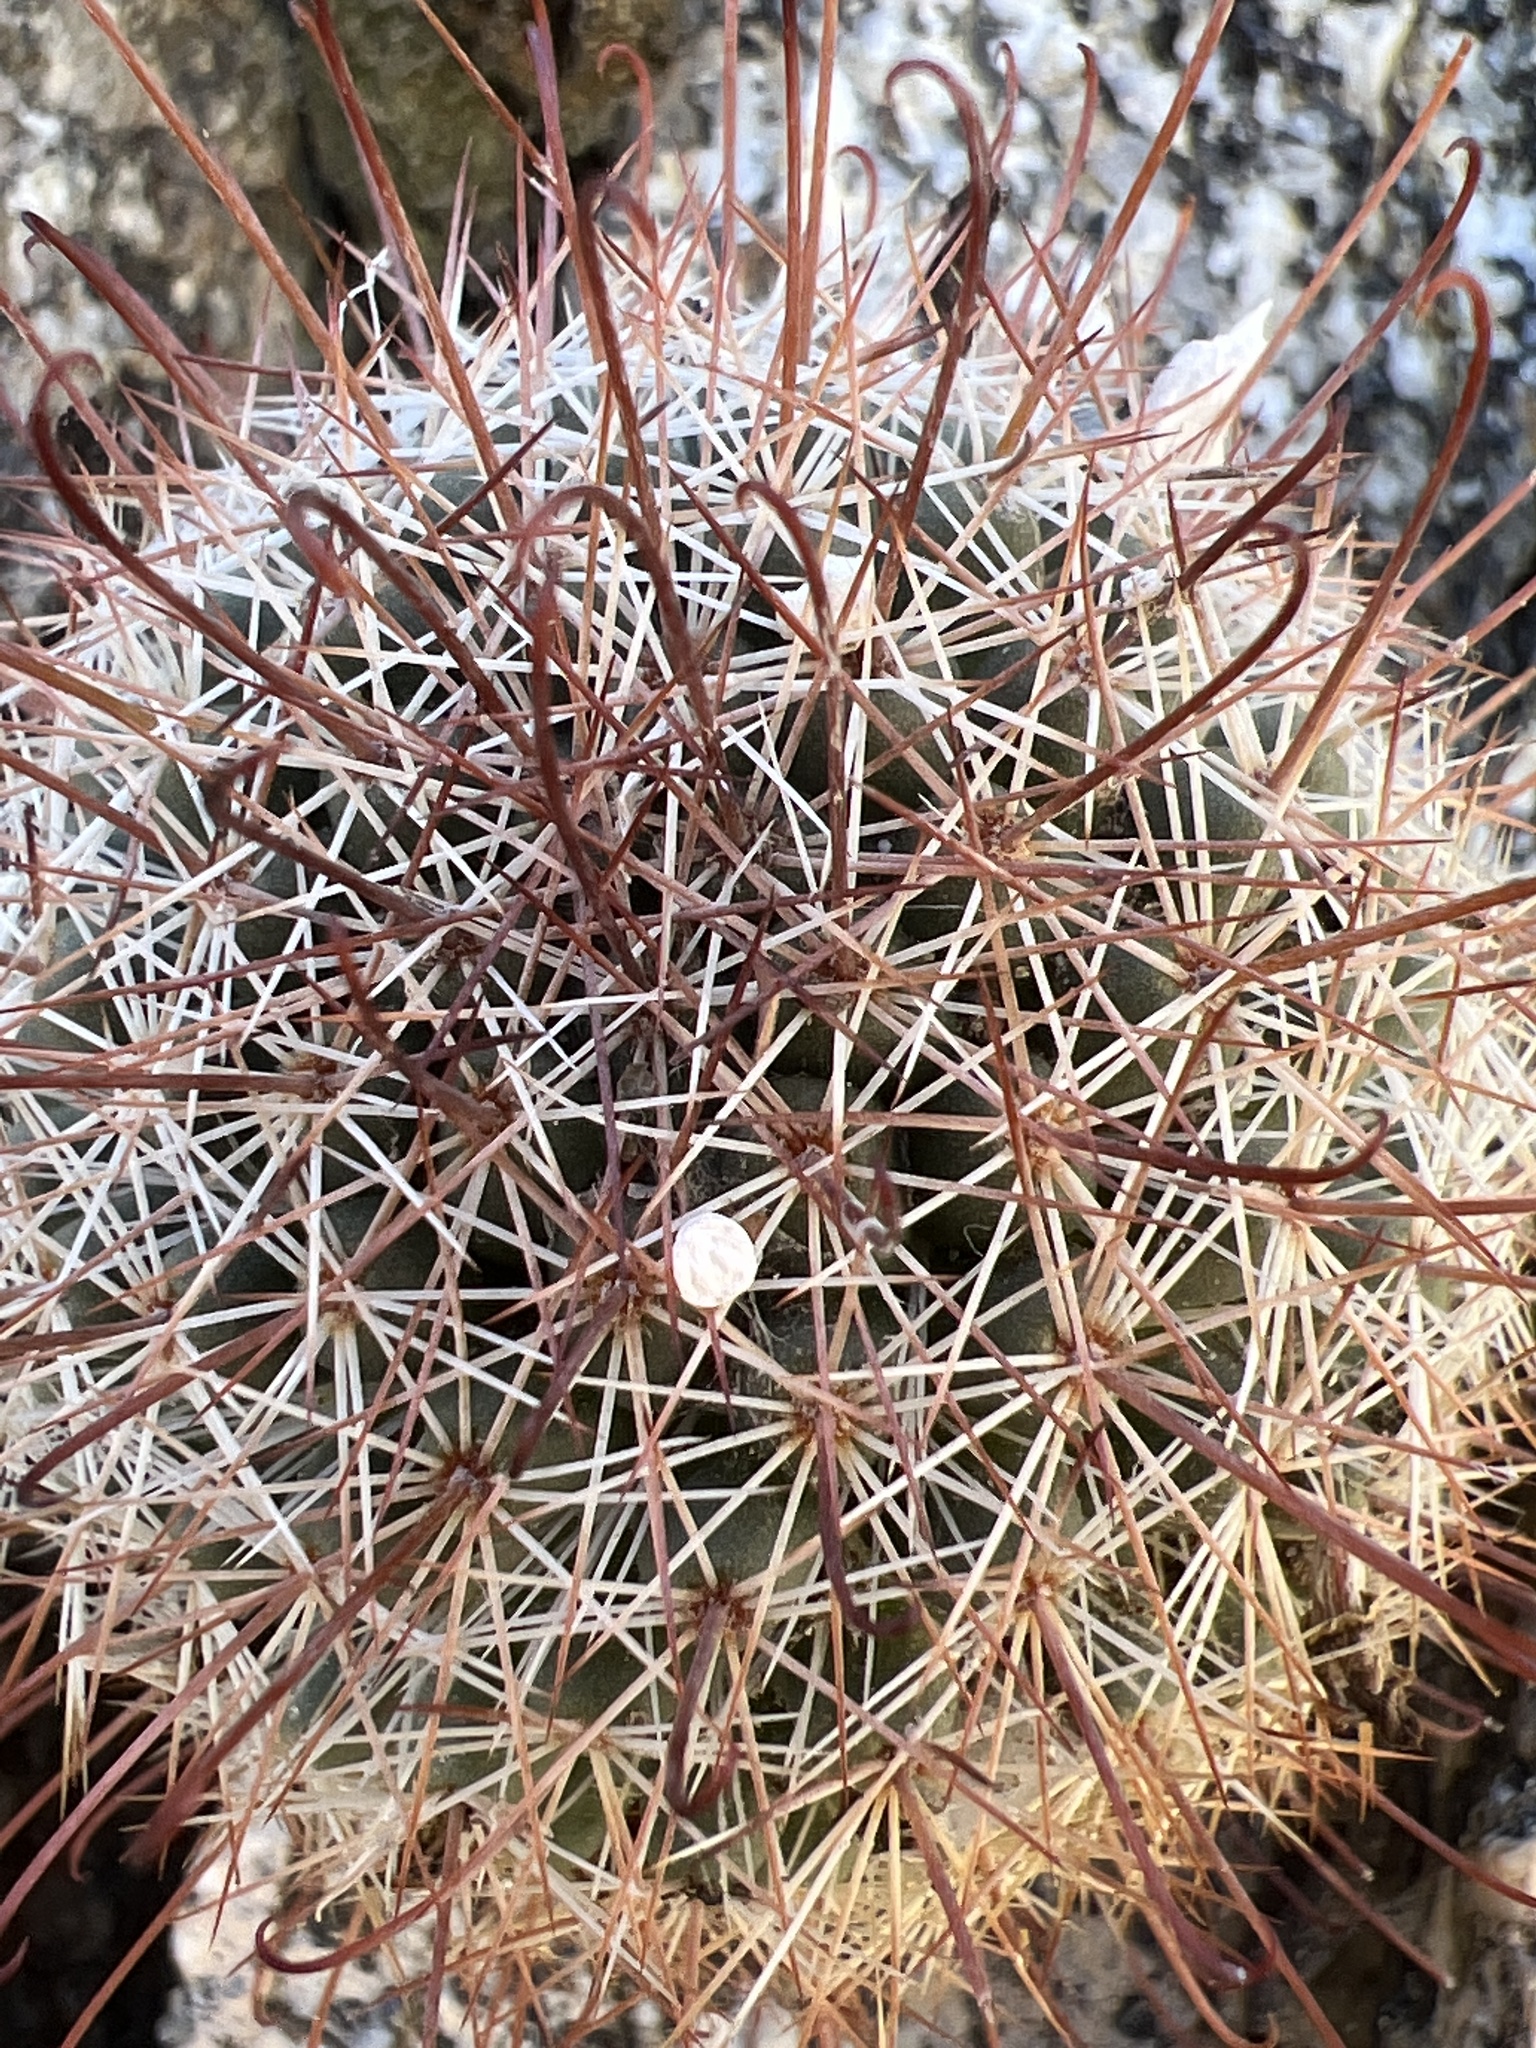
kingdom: Plantae
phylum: Tracheophyta
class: Magnoliopsida
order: Caryophyllales
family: Cactaceae
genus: Cochemiea
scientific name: Cochemiea dioica
